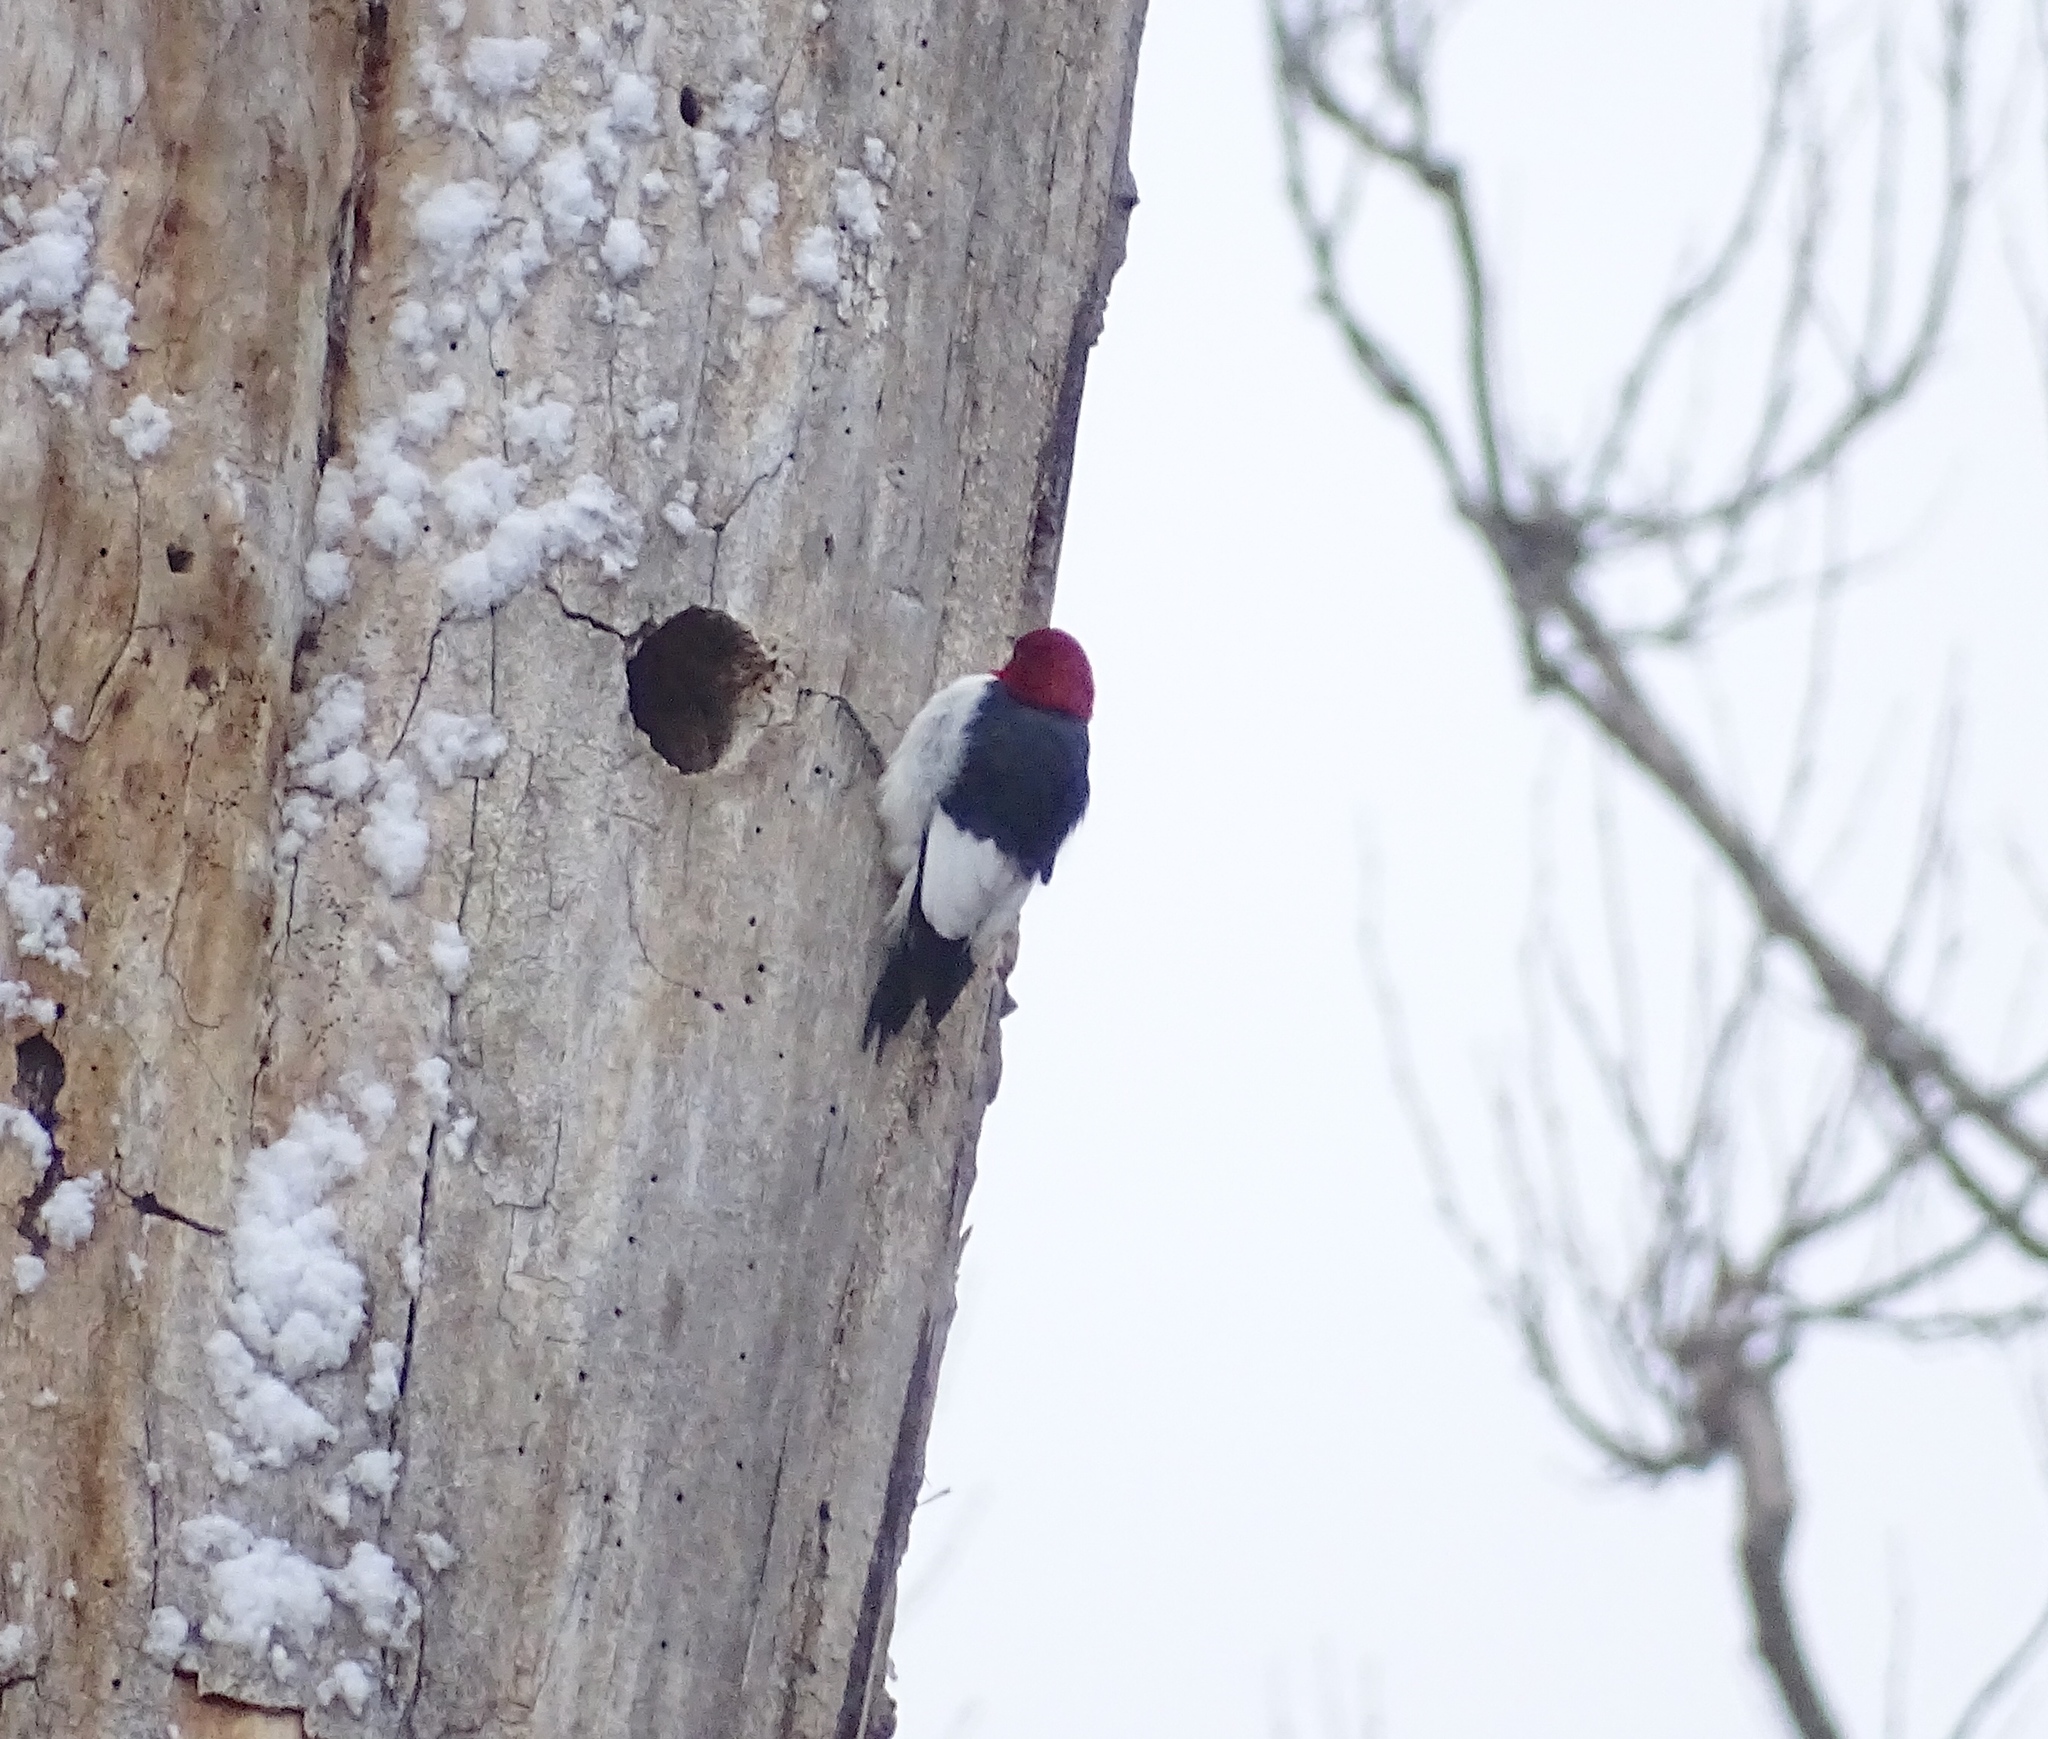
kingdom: Animalia
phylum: Chordata
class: Aves
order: Piciformes
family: Picidae
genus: Melanerpes
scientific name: Melanerpes erythrocephalus
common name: Red-headed woodpecker
